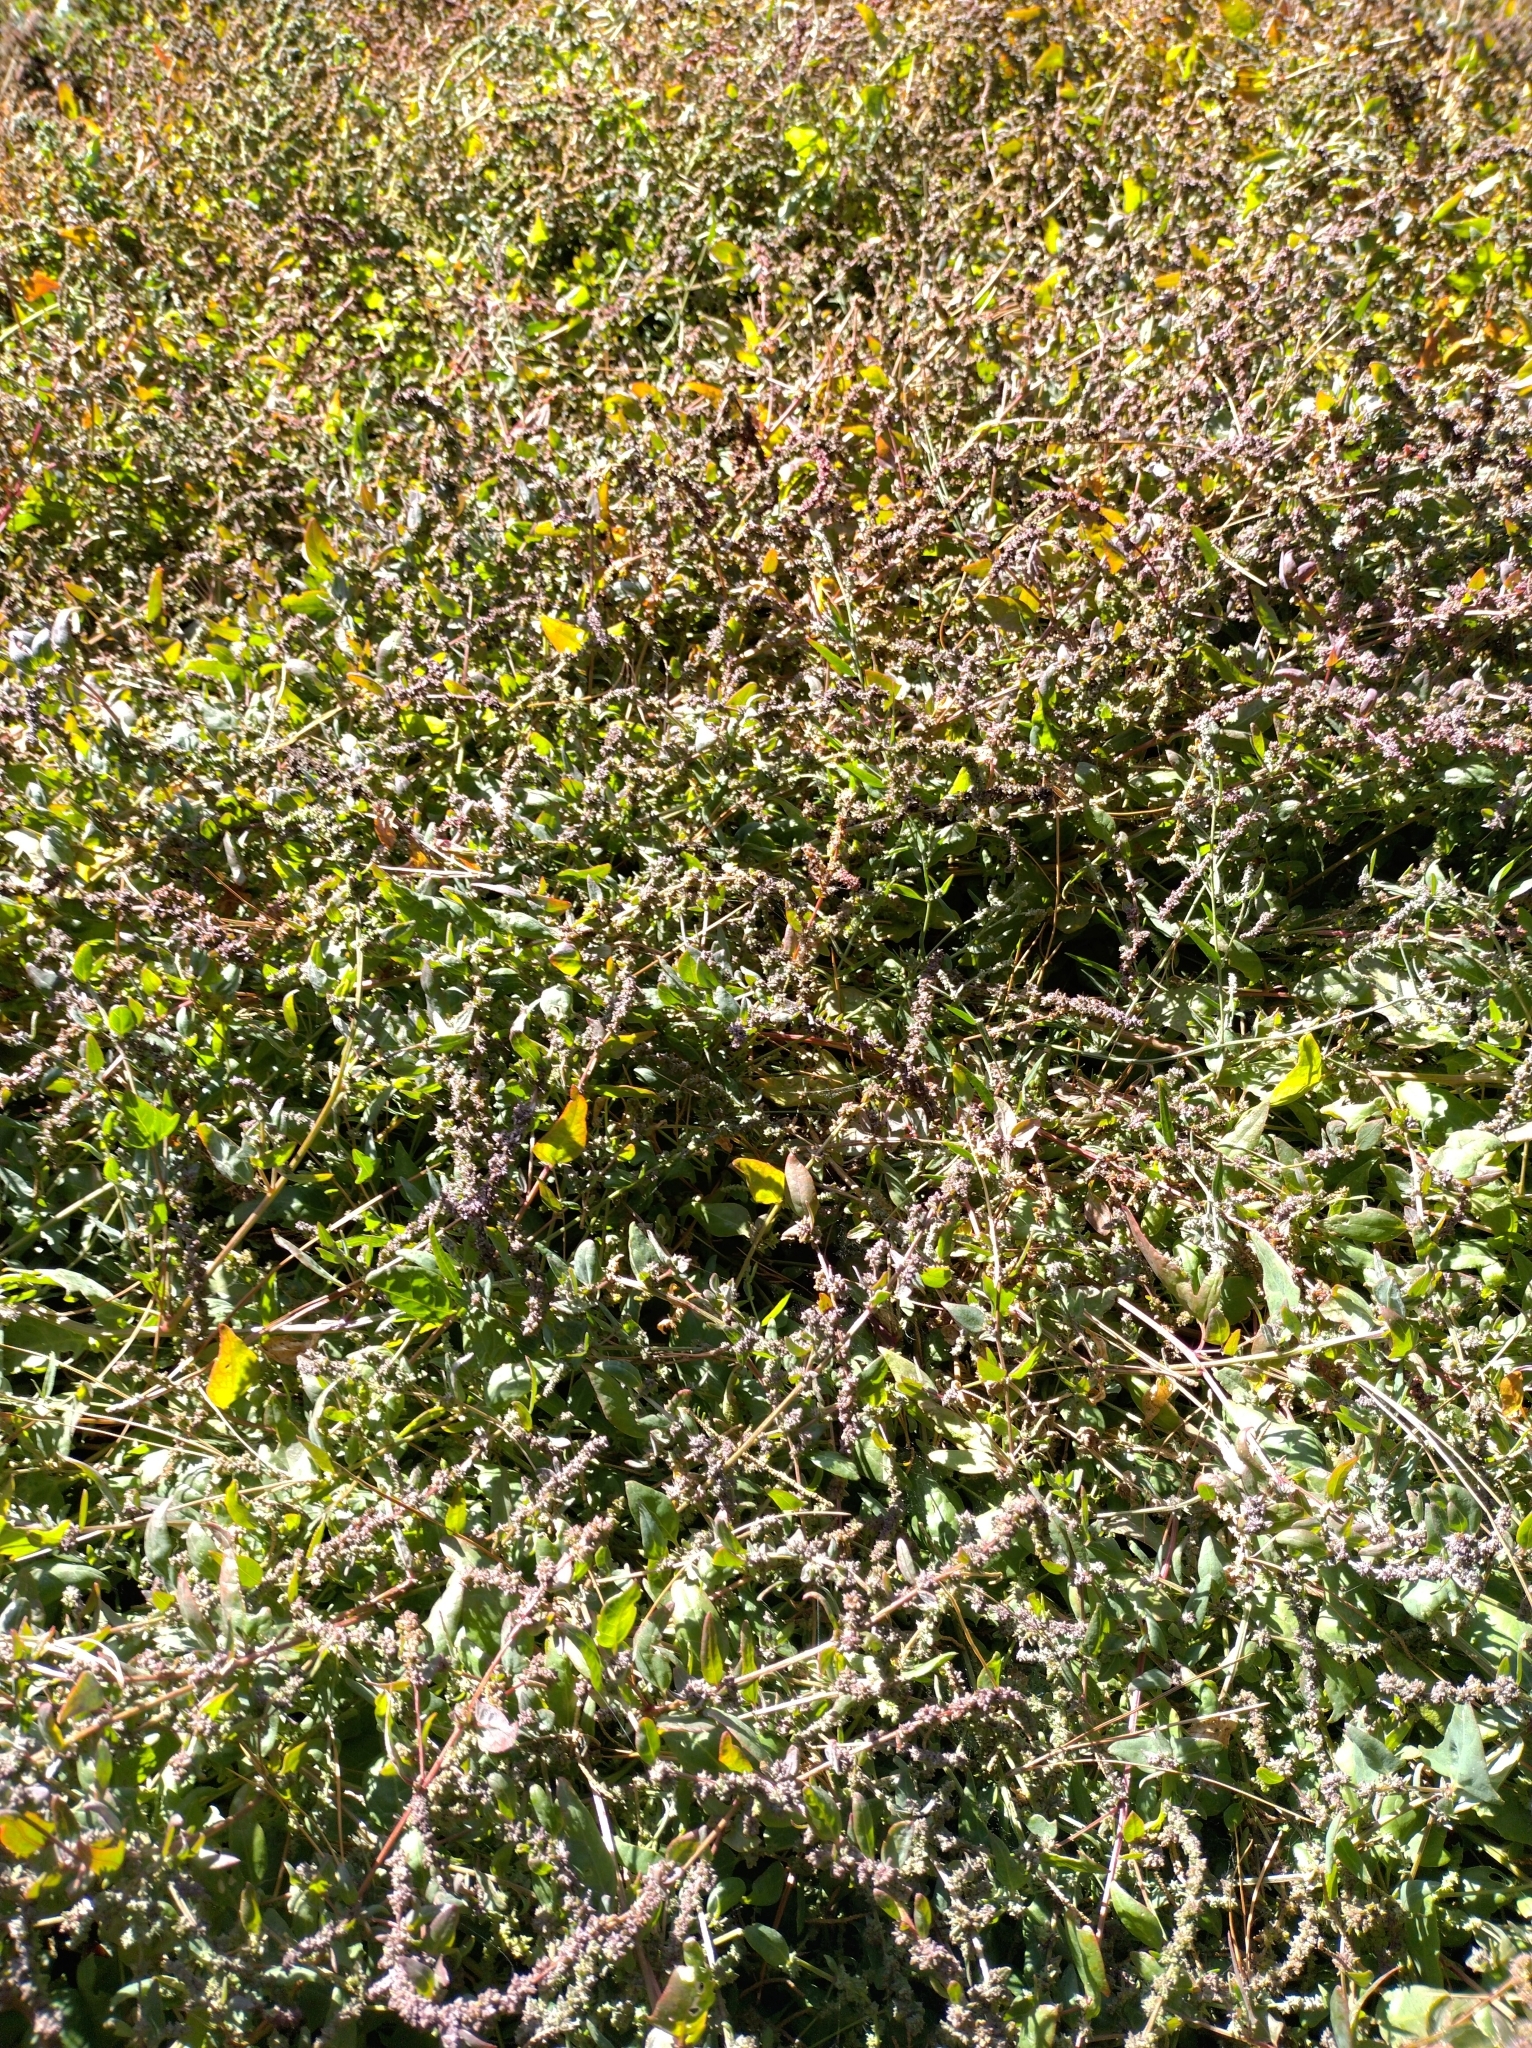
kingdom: Plantae
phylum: Tracheophyta
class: Magnoliopsida
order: Caryophyllales
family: Amaranthaceae
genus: Atriplex
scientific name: Atriplex prostrata
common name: Spear-leaved orache
